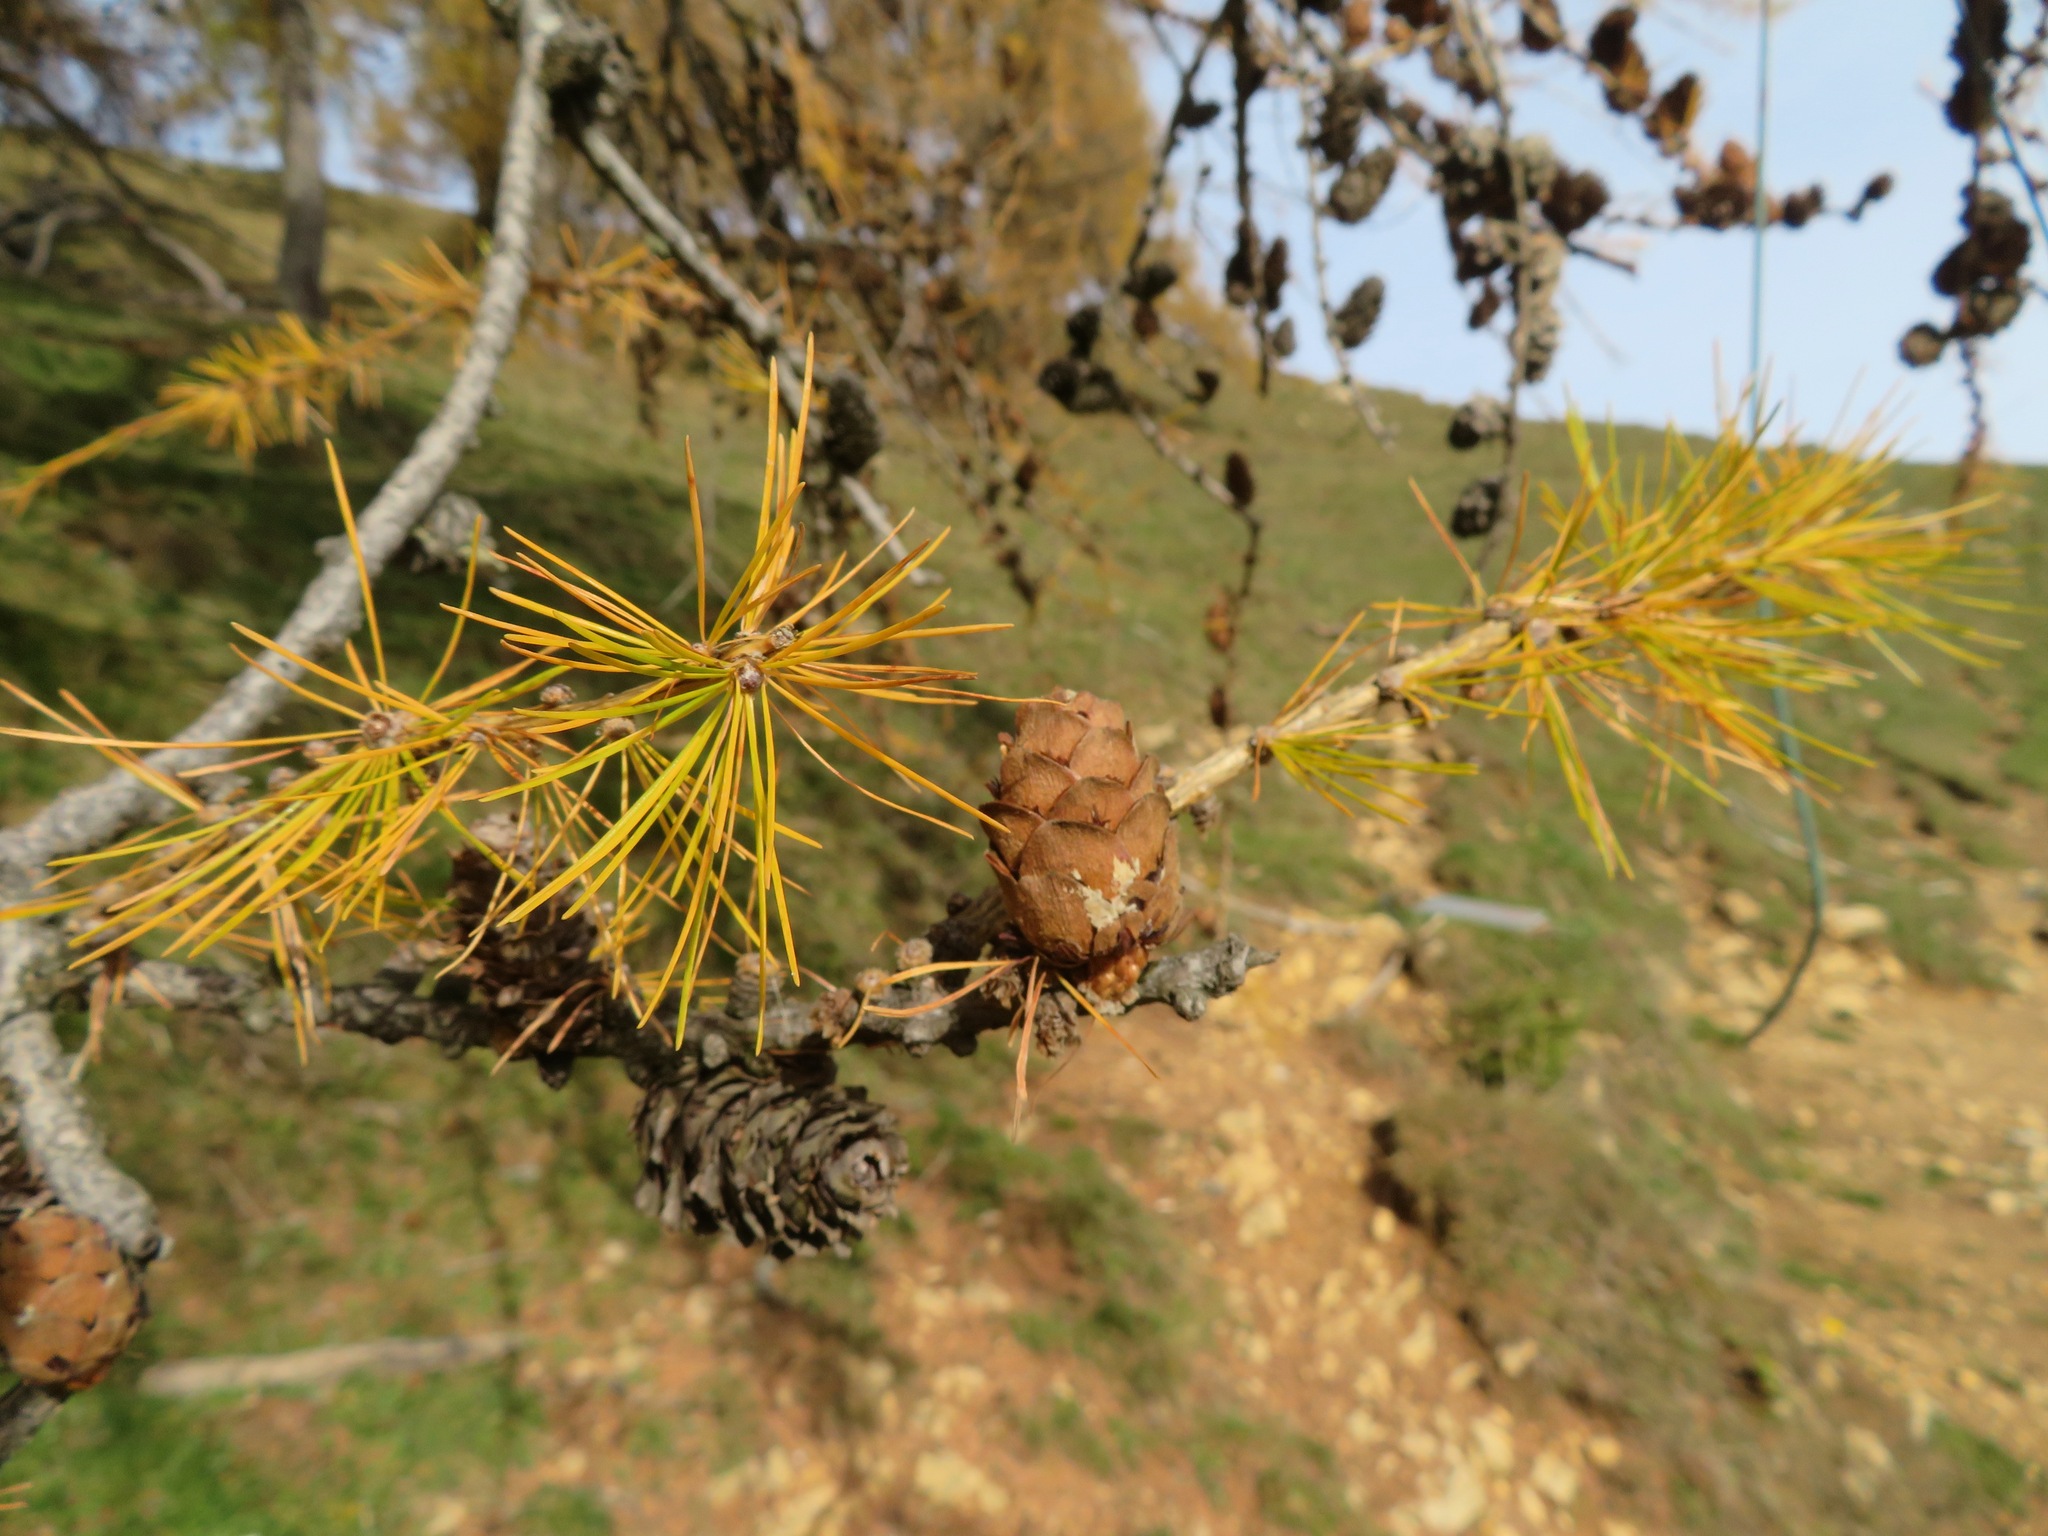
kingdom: Plantae
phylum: Tracheophyta
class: Pinopsida
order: Pinales
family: Pinaceae
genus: Larix
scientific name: Larix decidua
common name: European larch
